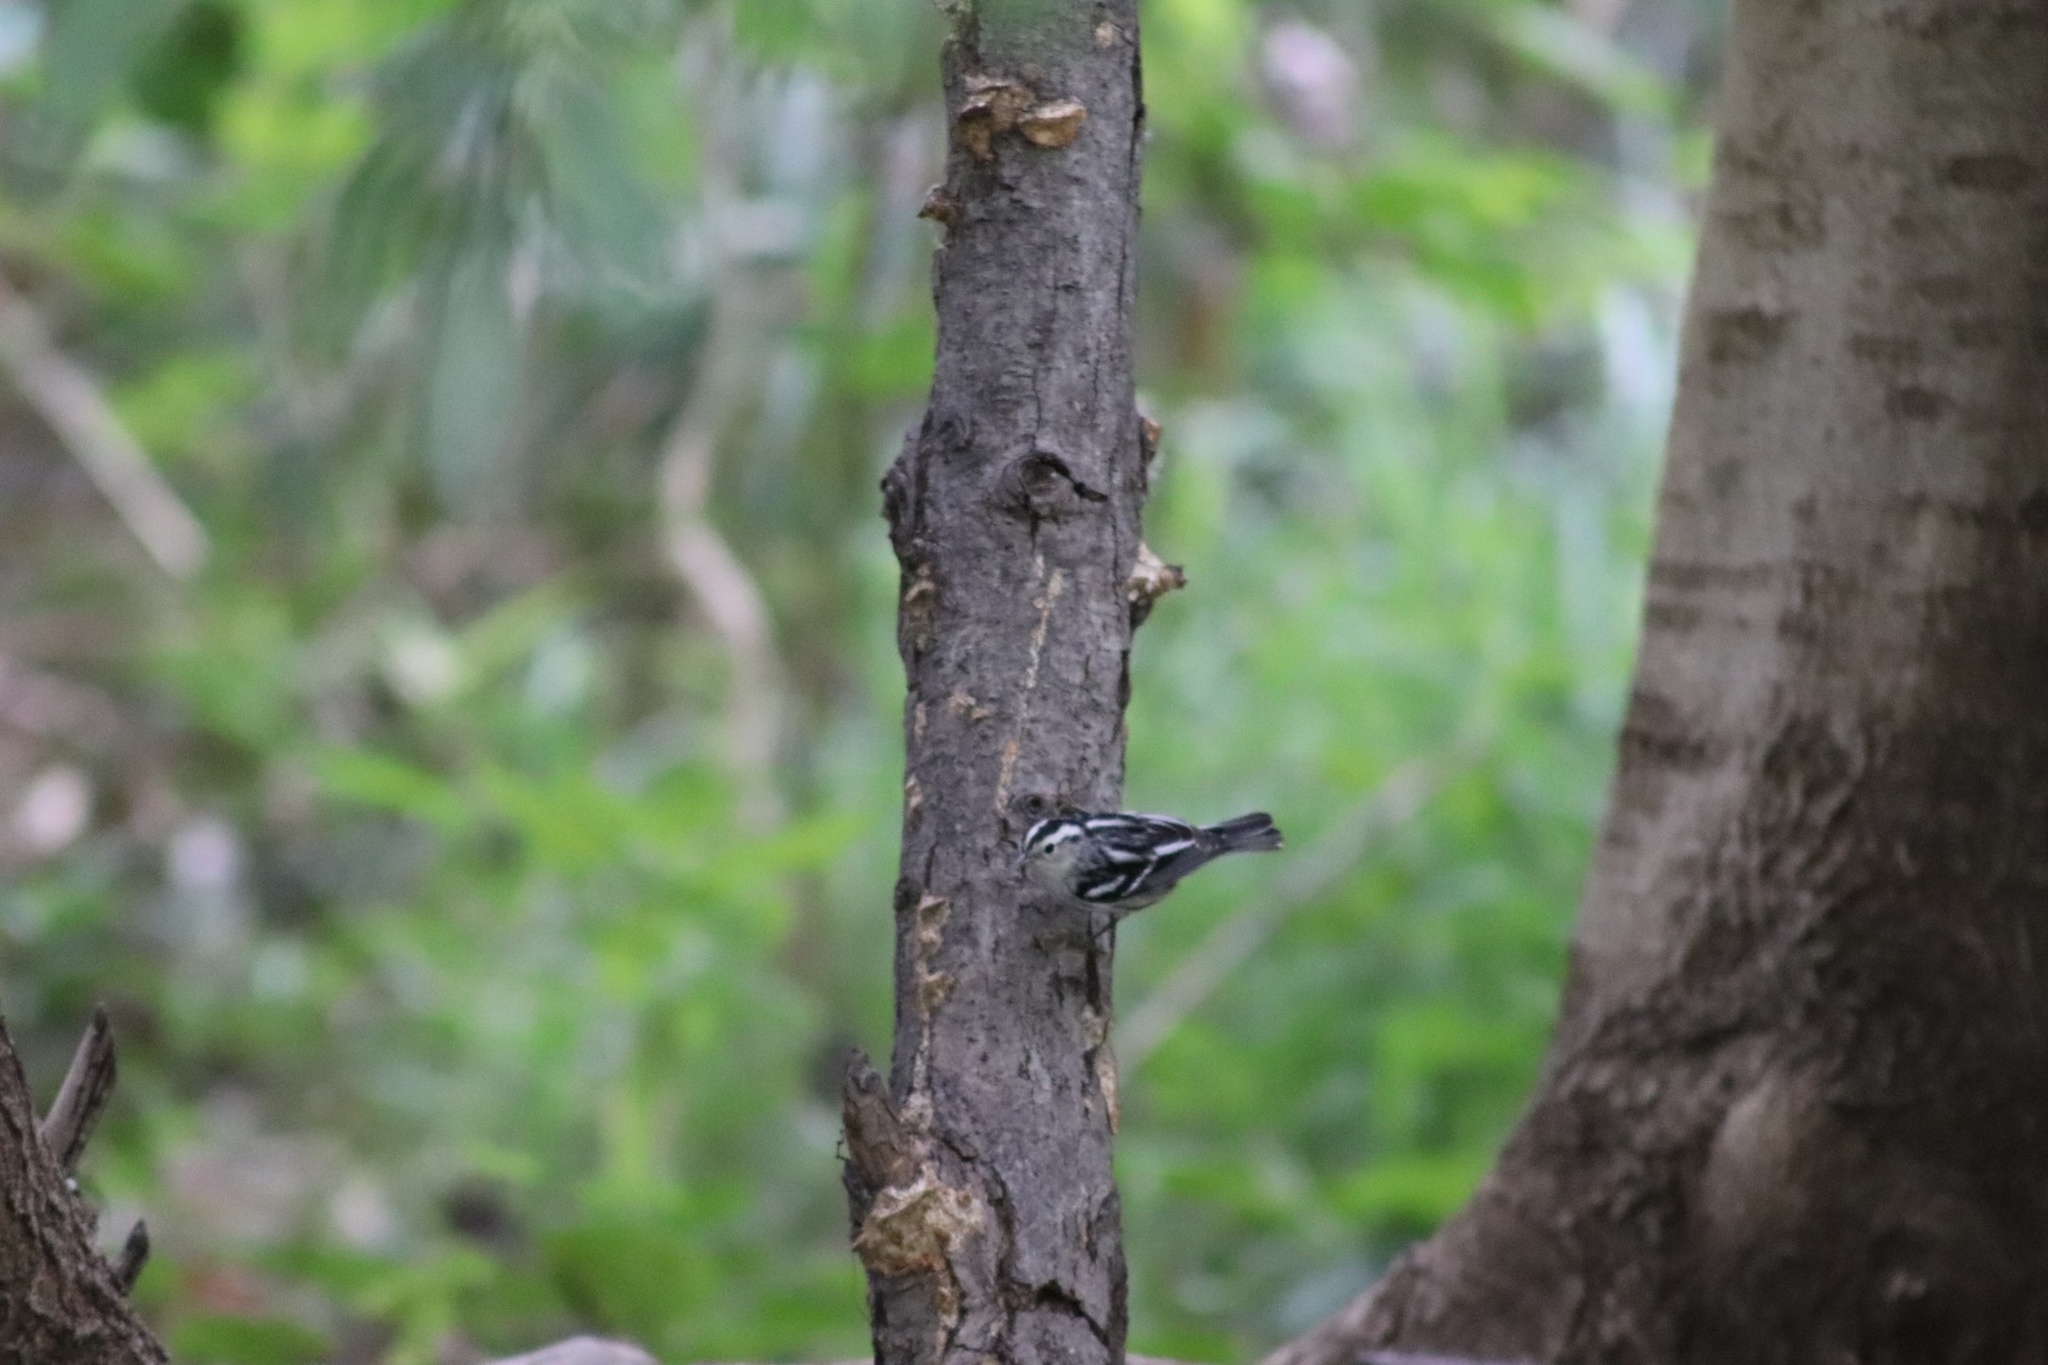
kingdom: Animalia
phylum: Chordata
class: Aves
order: Passeriformes
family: Parulidae
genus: Mniotilta
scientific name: Mniotilta varia
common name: Black-and-white warbler
